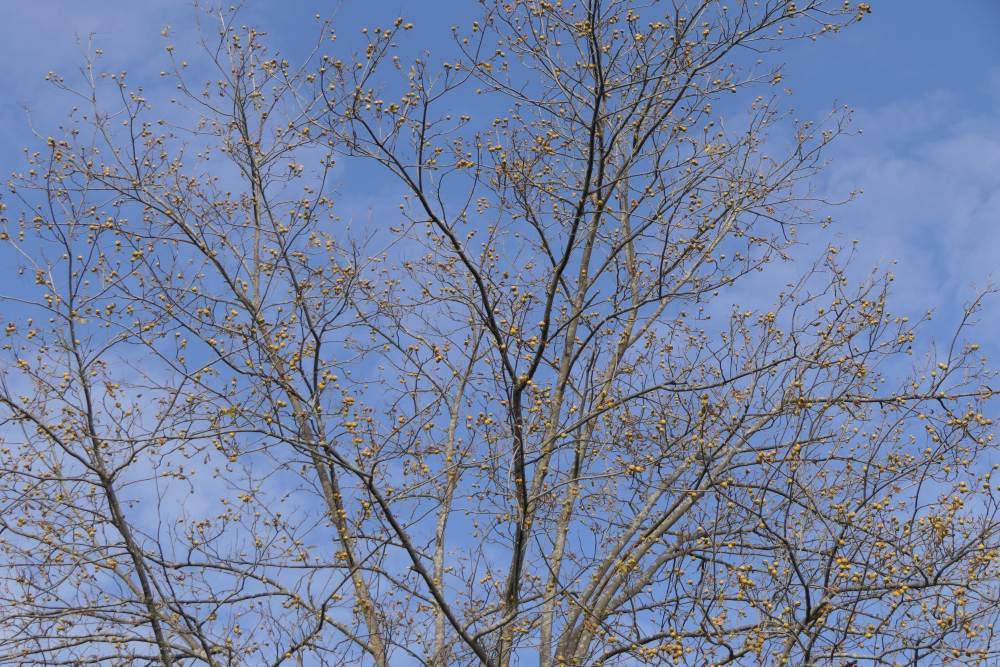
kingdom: Plantae
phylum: Tracheophyta
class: Magnoliopsida
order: Fagales
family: Juglandaceae
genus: Carya
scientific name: Carya cordiformis
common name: Bitternut hickory
